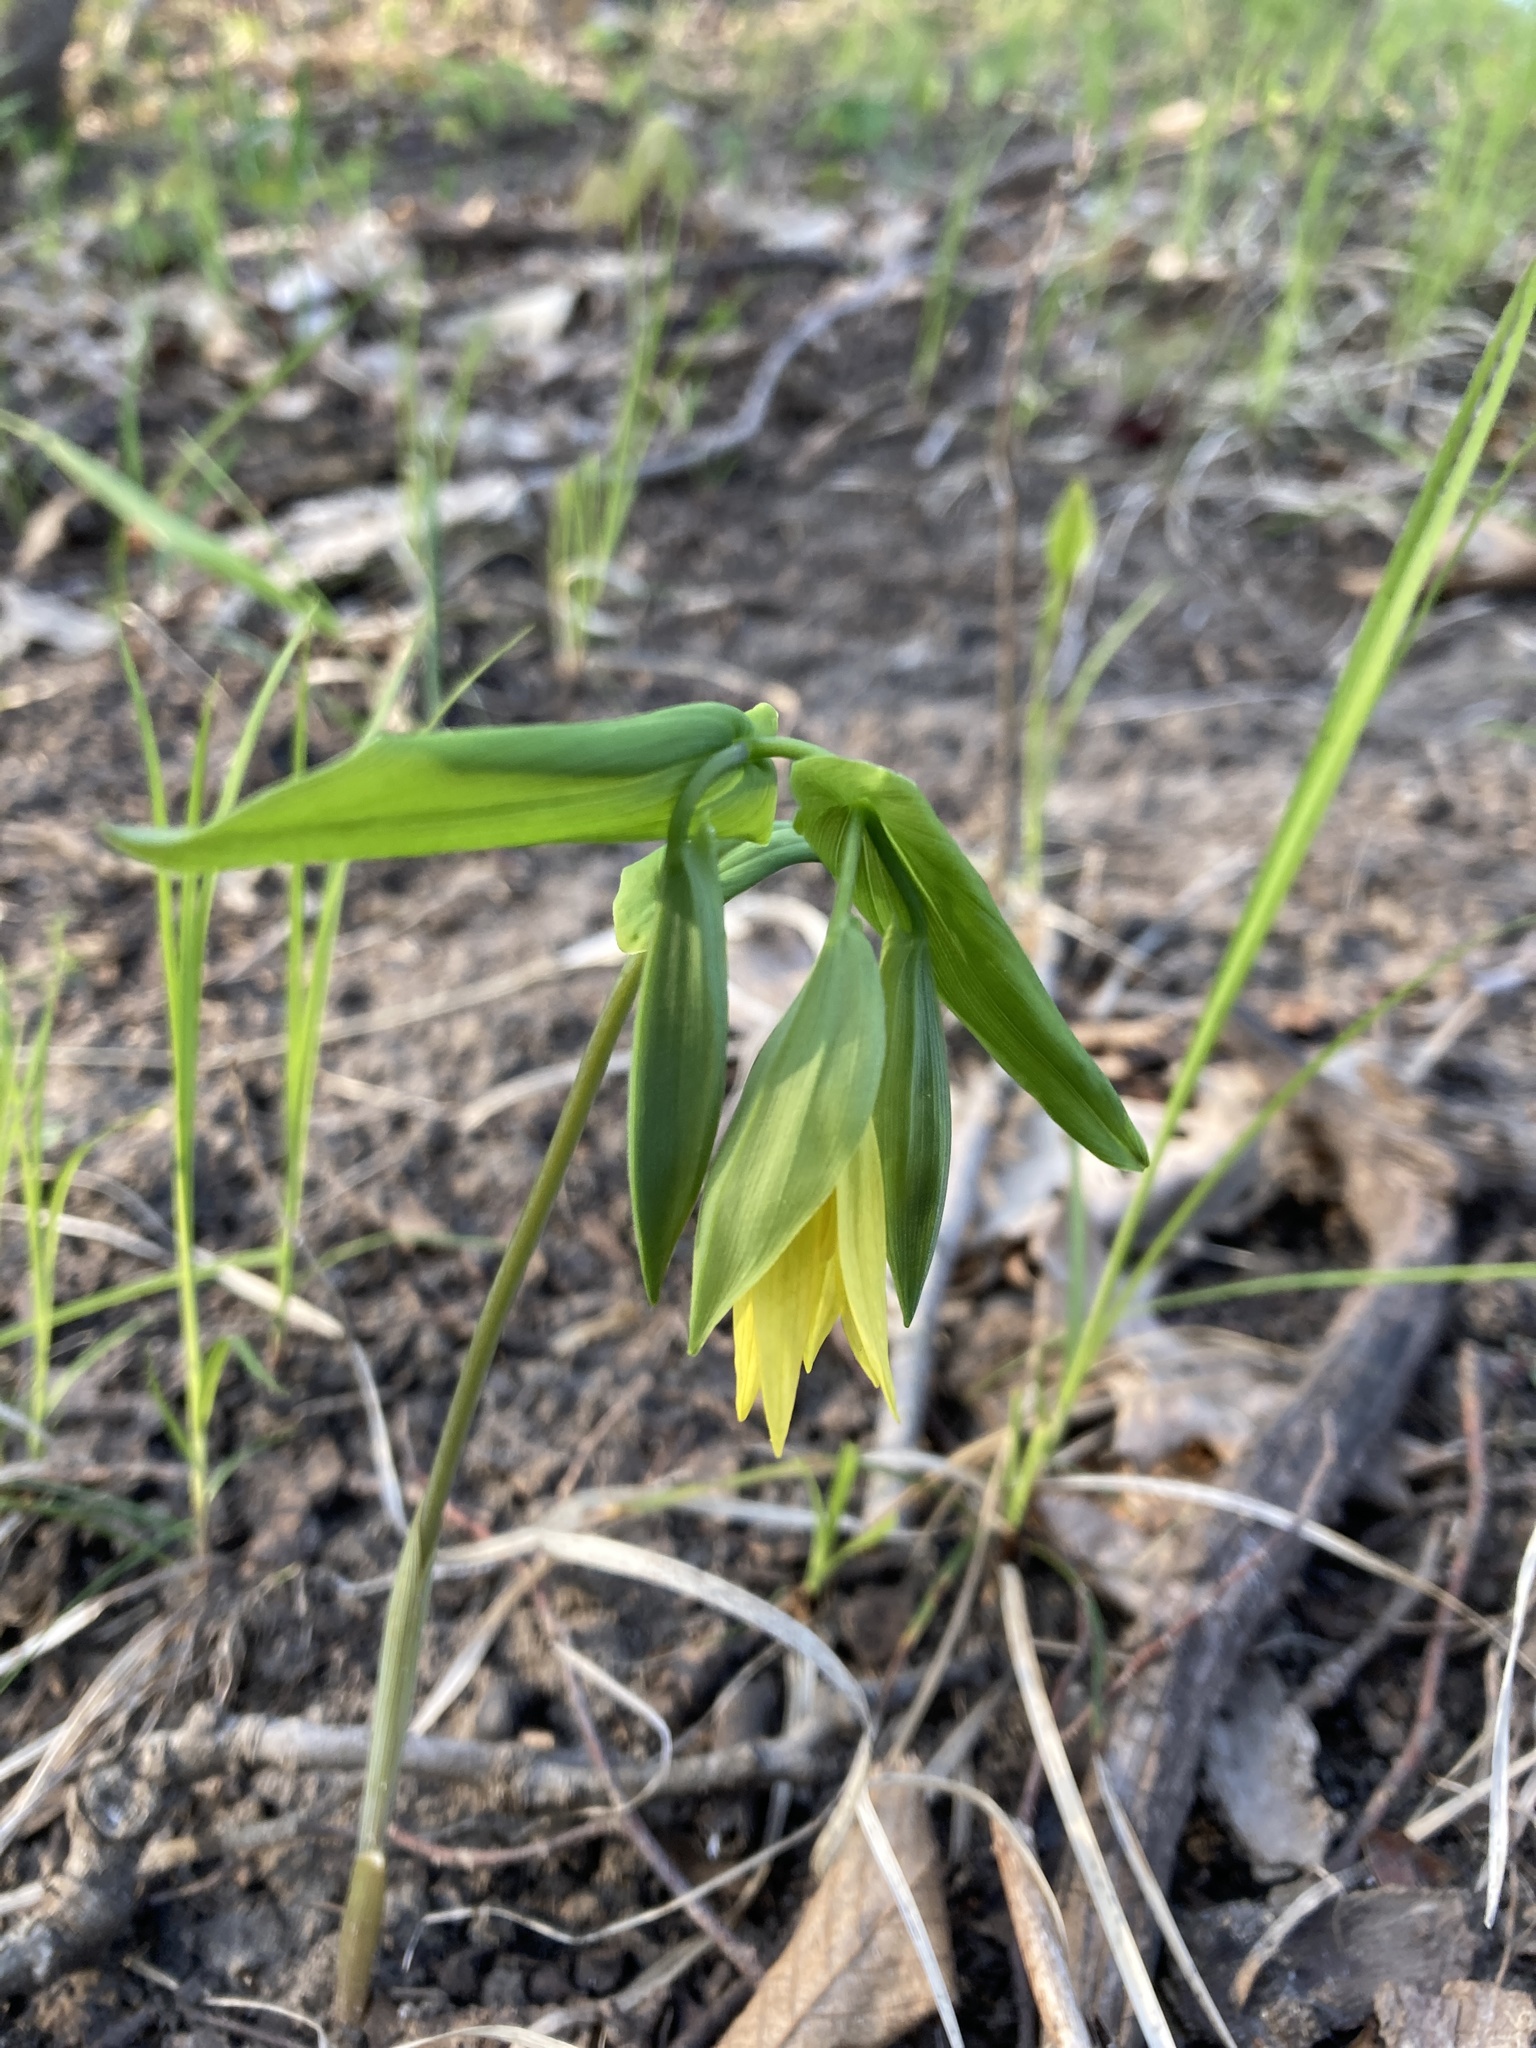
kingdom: Plantae
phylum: Tracheophyta
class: Liliopsida
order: Liliales
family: Colchicaceae
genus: Uvularia
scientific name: Uvularia grandiflora
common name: Bellwort
